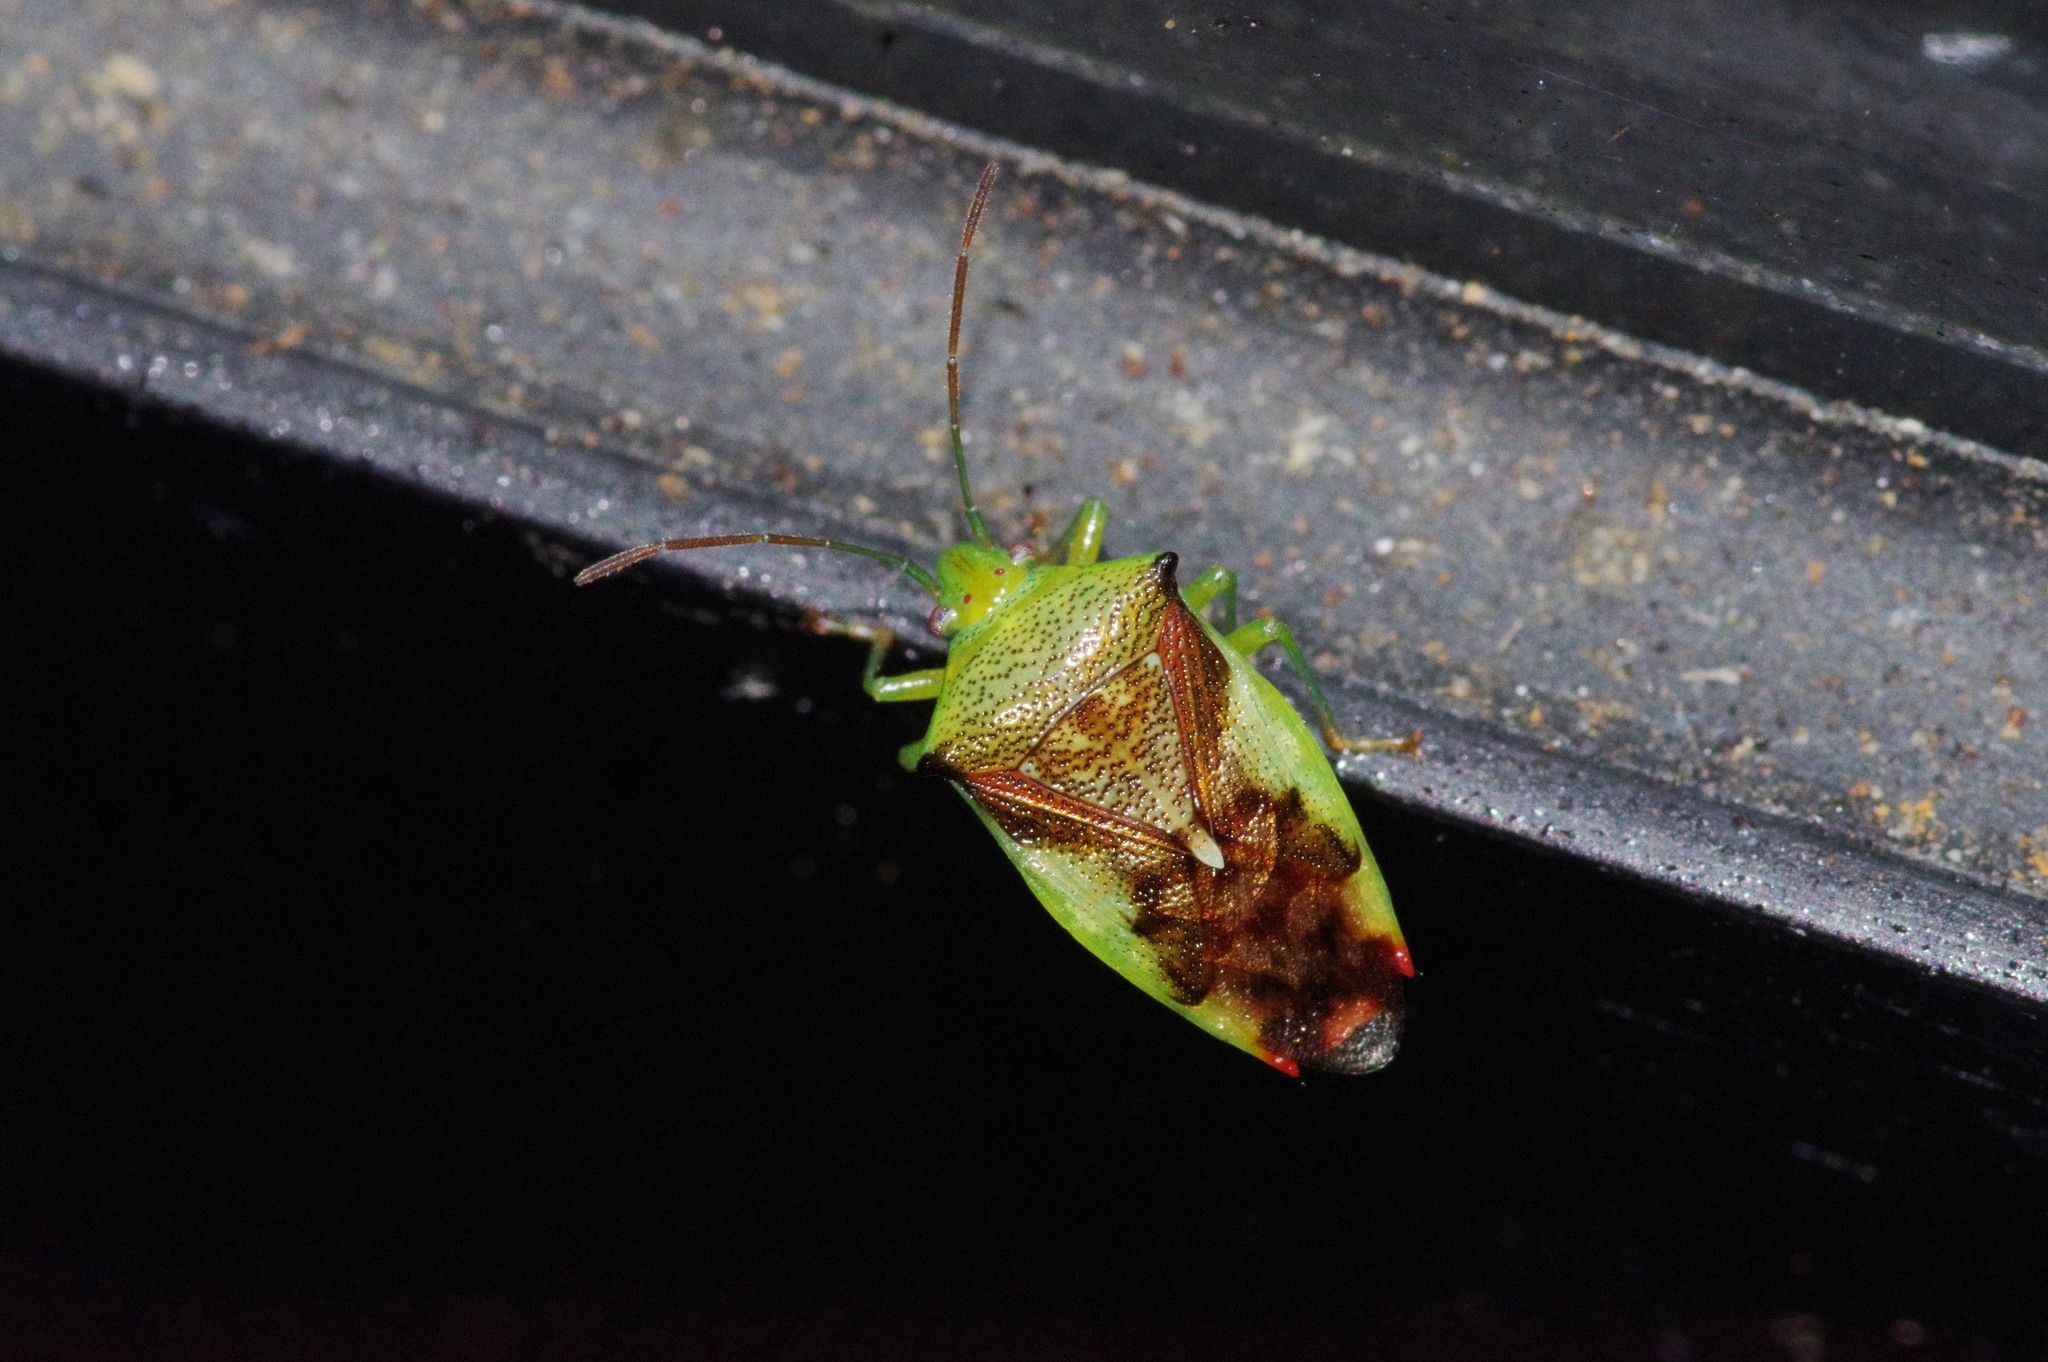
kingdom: Animalia
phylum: Arthropoda
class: Insecta
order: Hemiptera
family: Acanthosomatidae
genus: Elasmostethus
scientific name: Elasmostethus nubilus
